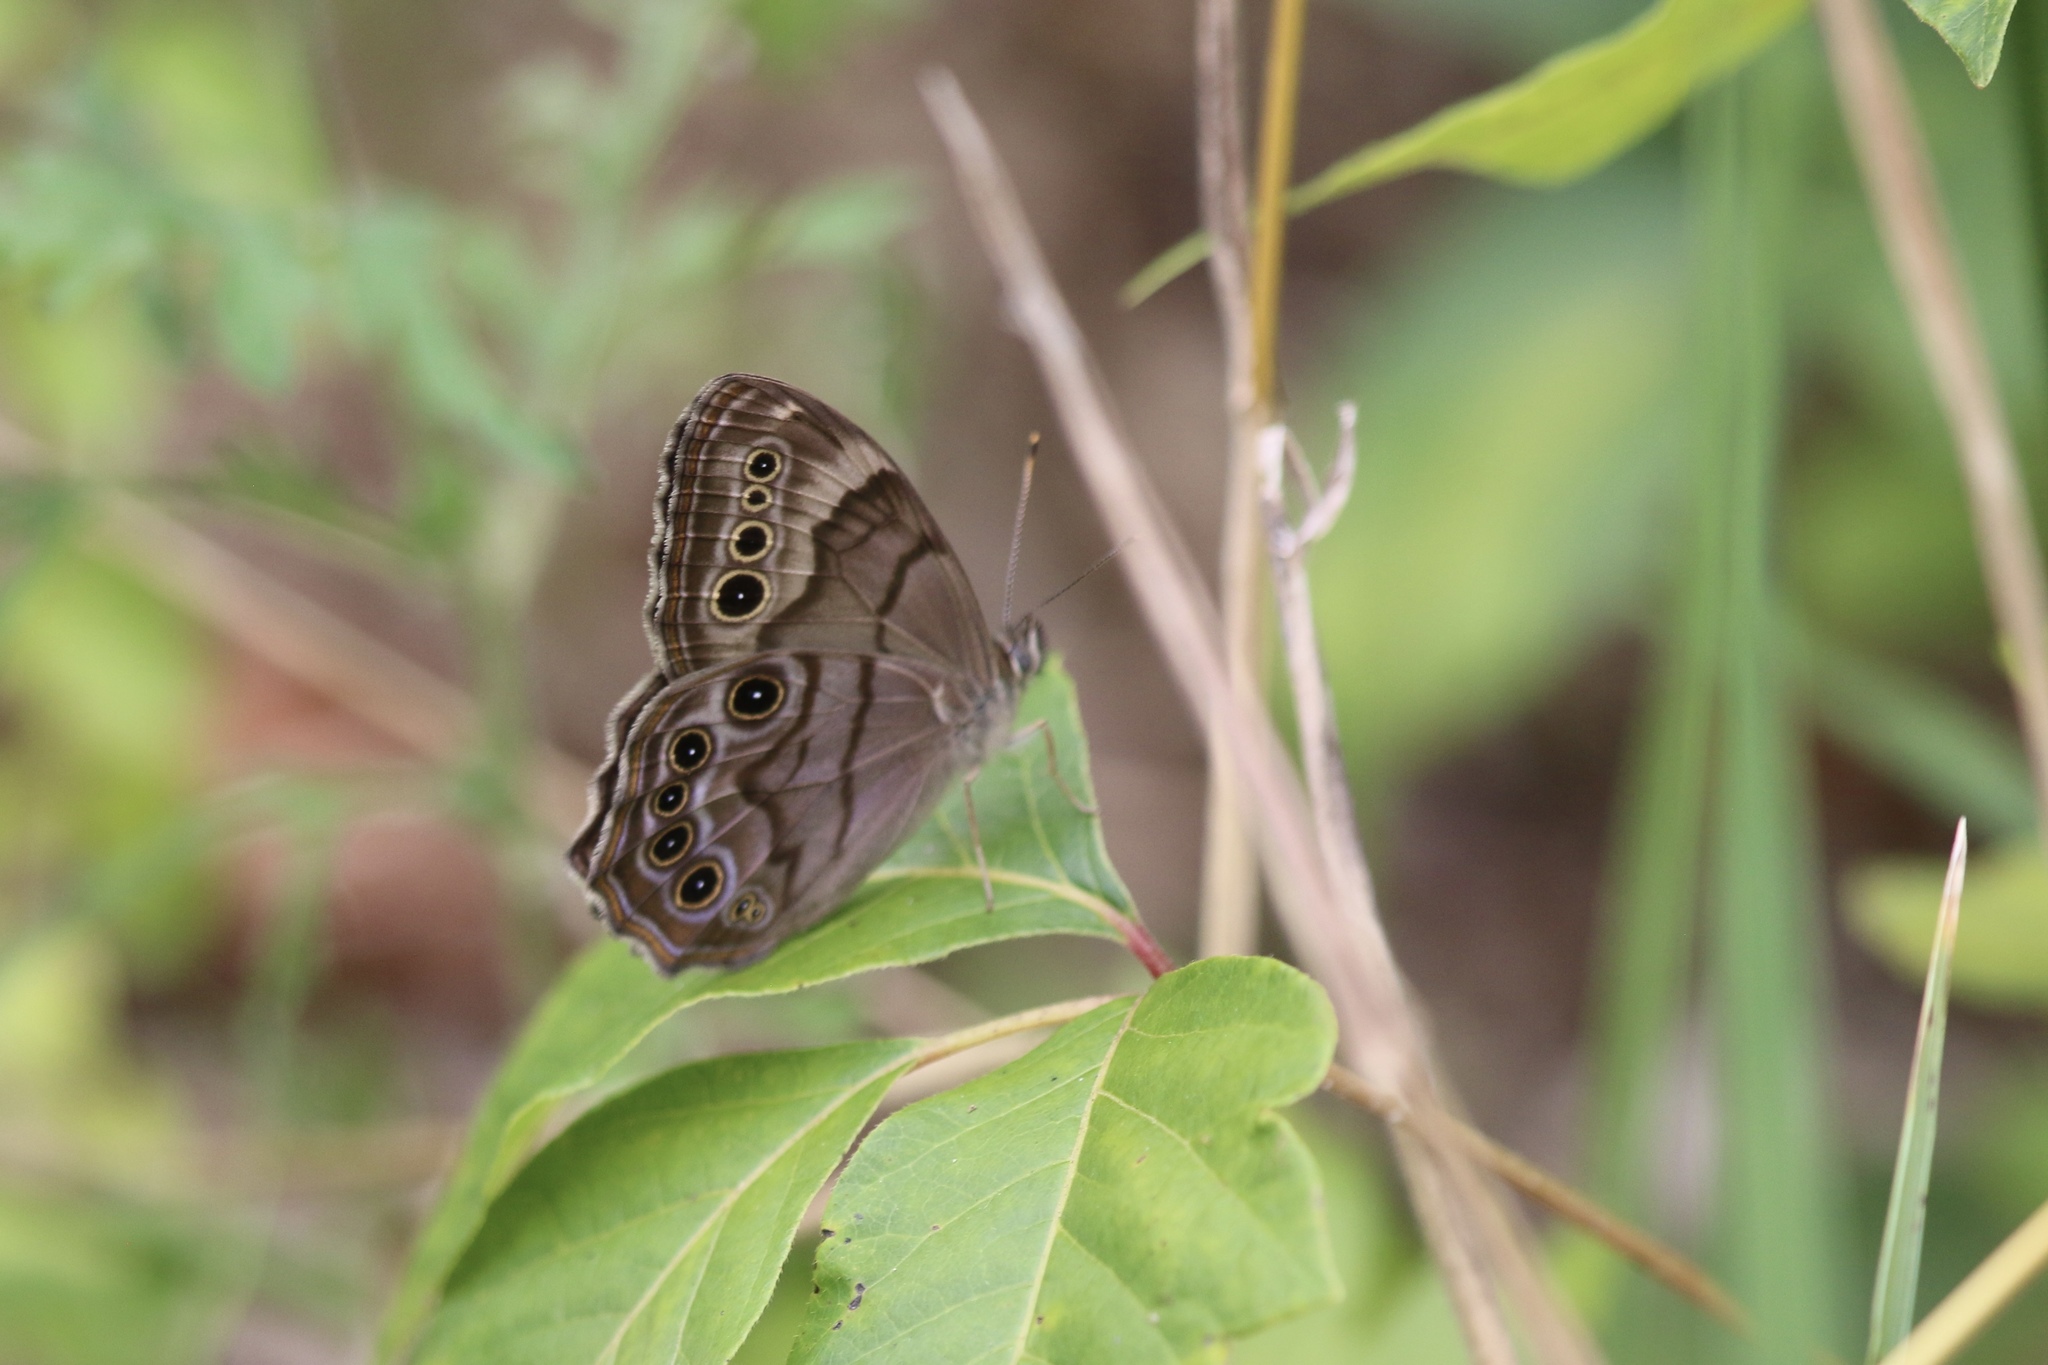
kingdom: Animalia
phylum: Arthropoda
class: Insecta
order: Lepidoptera
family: Nymphalidae
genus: Lethe
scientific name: Lethe anthedon
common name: Northern pearly-eye
